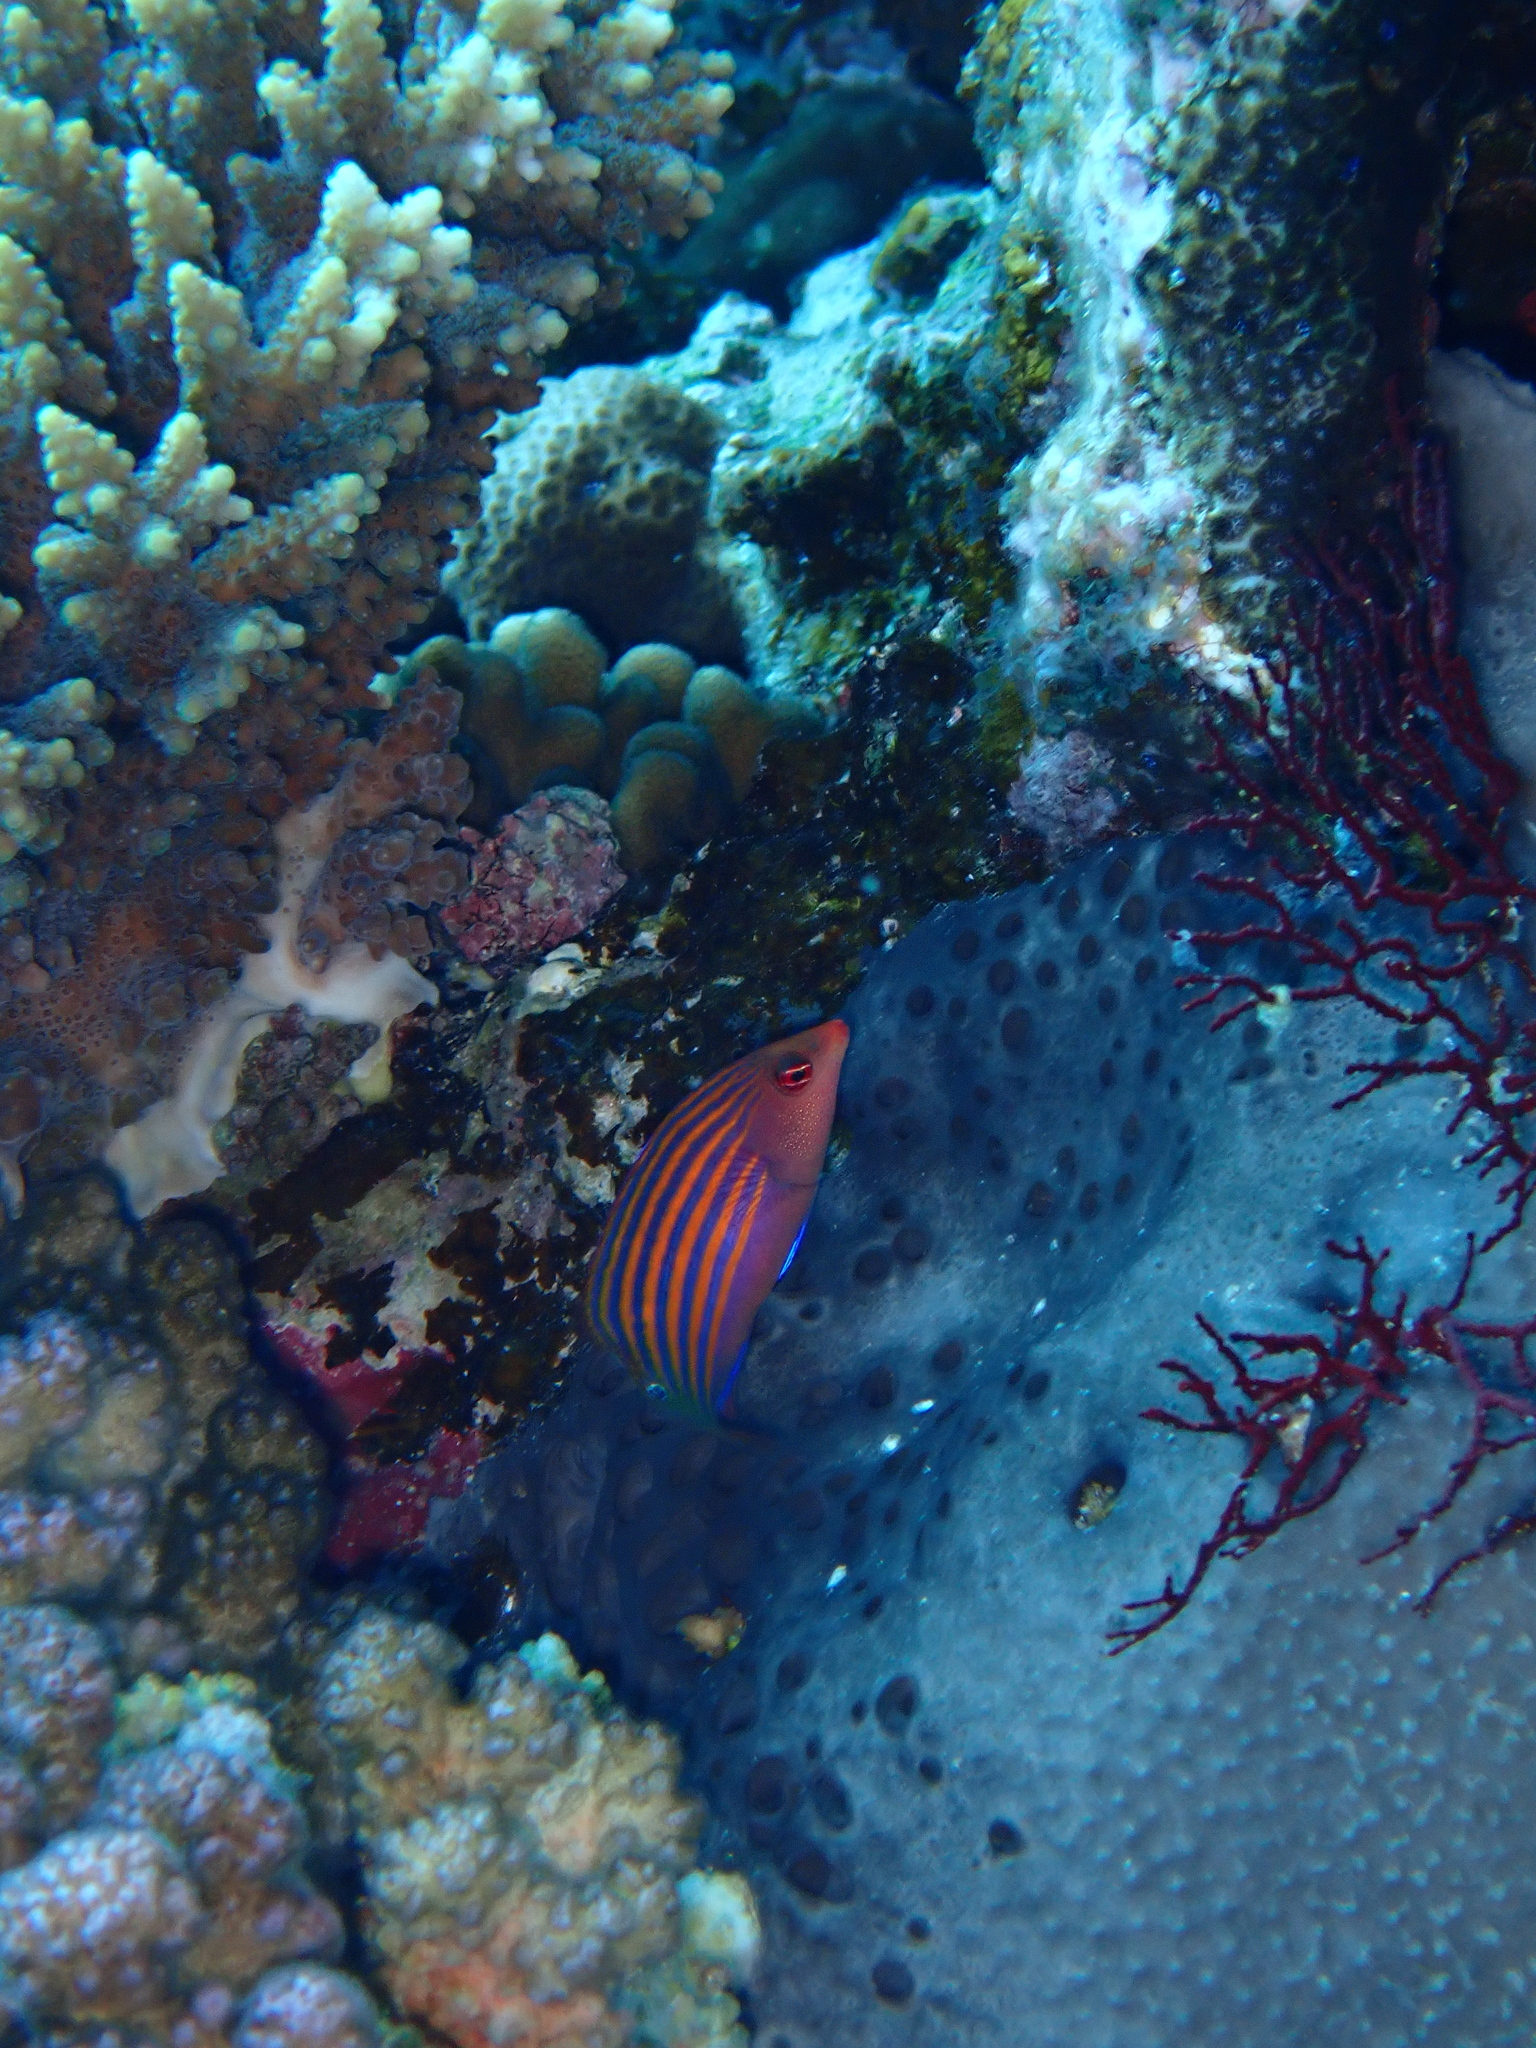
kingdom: Animalia
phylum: Chordata
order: Perciformes
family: Labridae
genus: Pseudocheilinus
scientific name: Pseudocheilinus hexataenia
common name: Sixline wrasse
